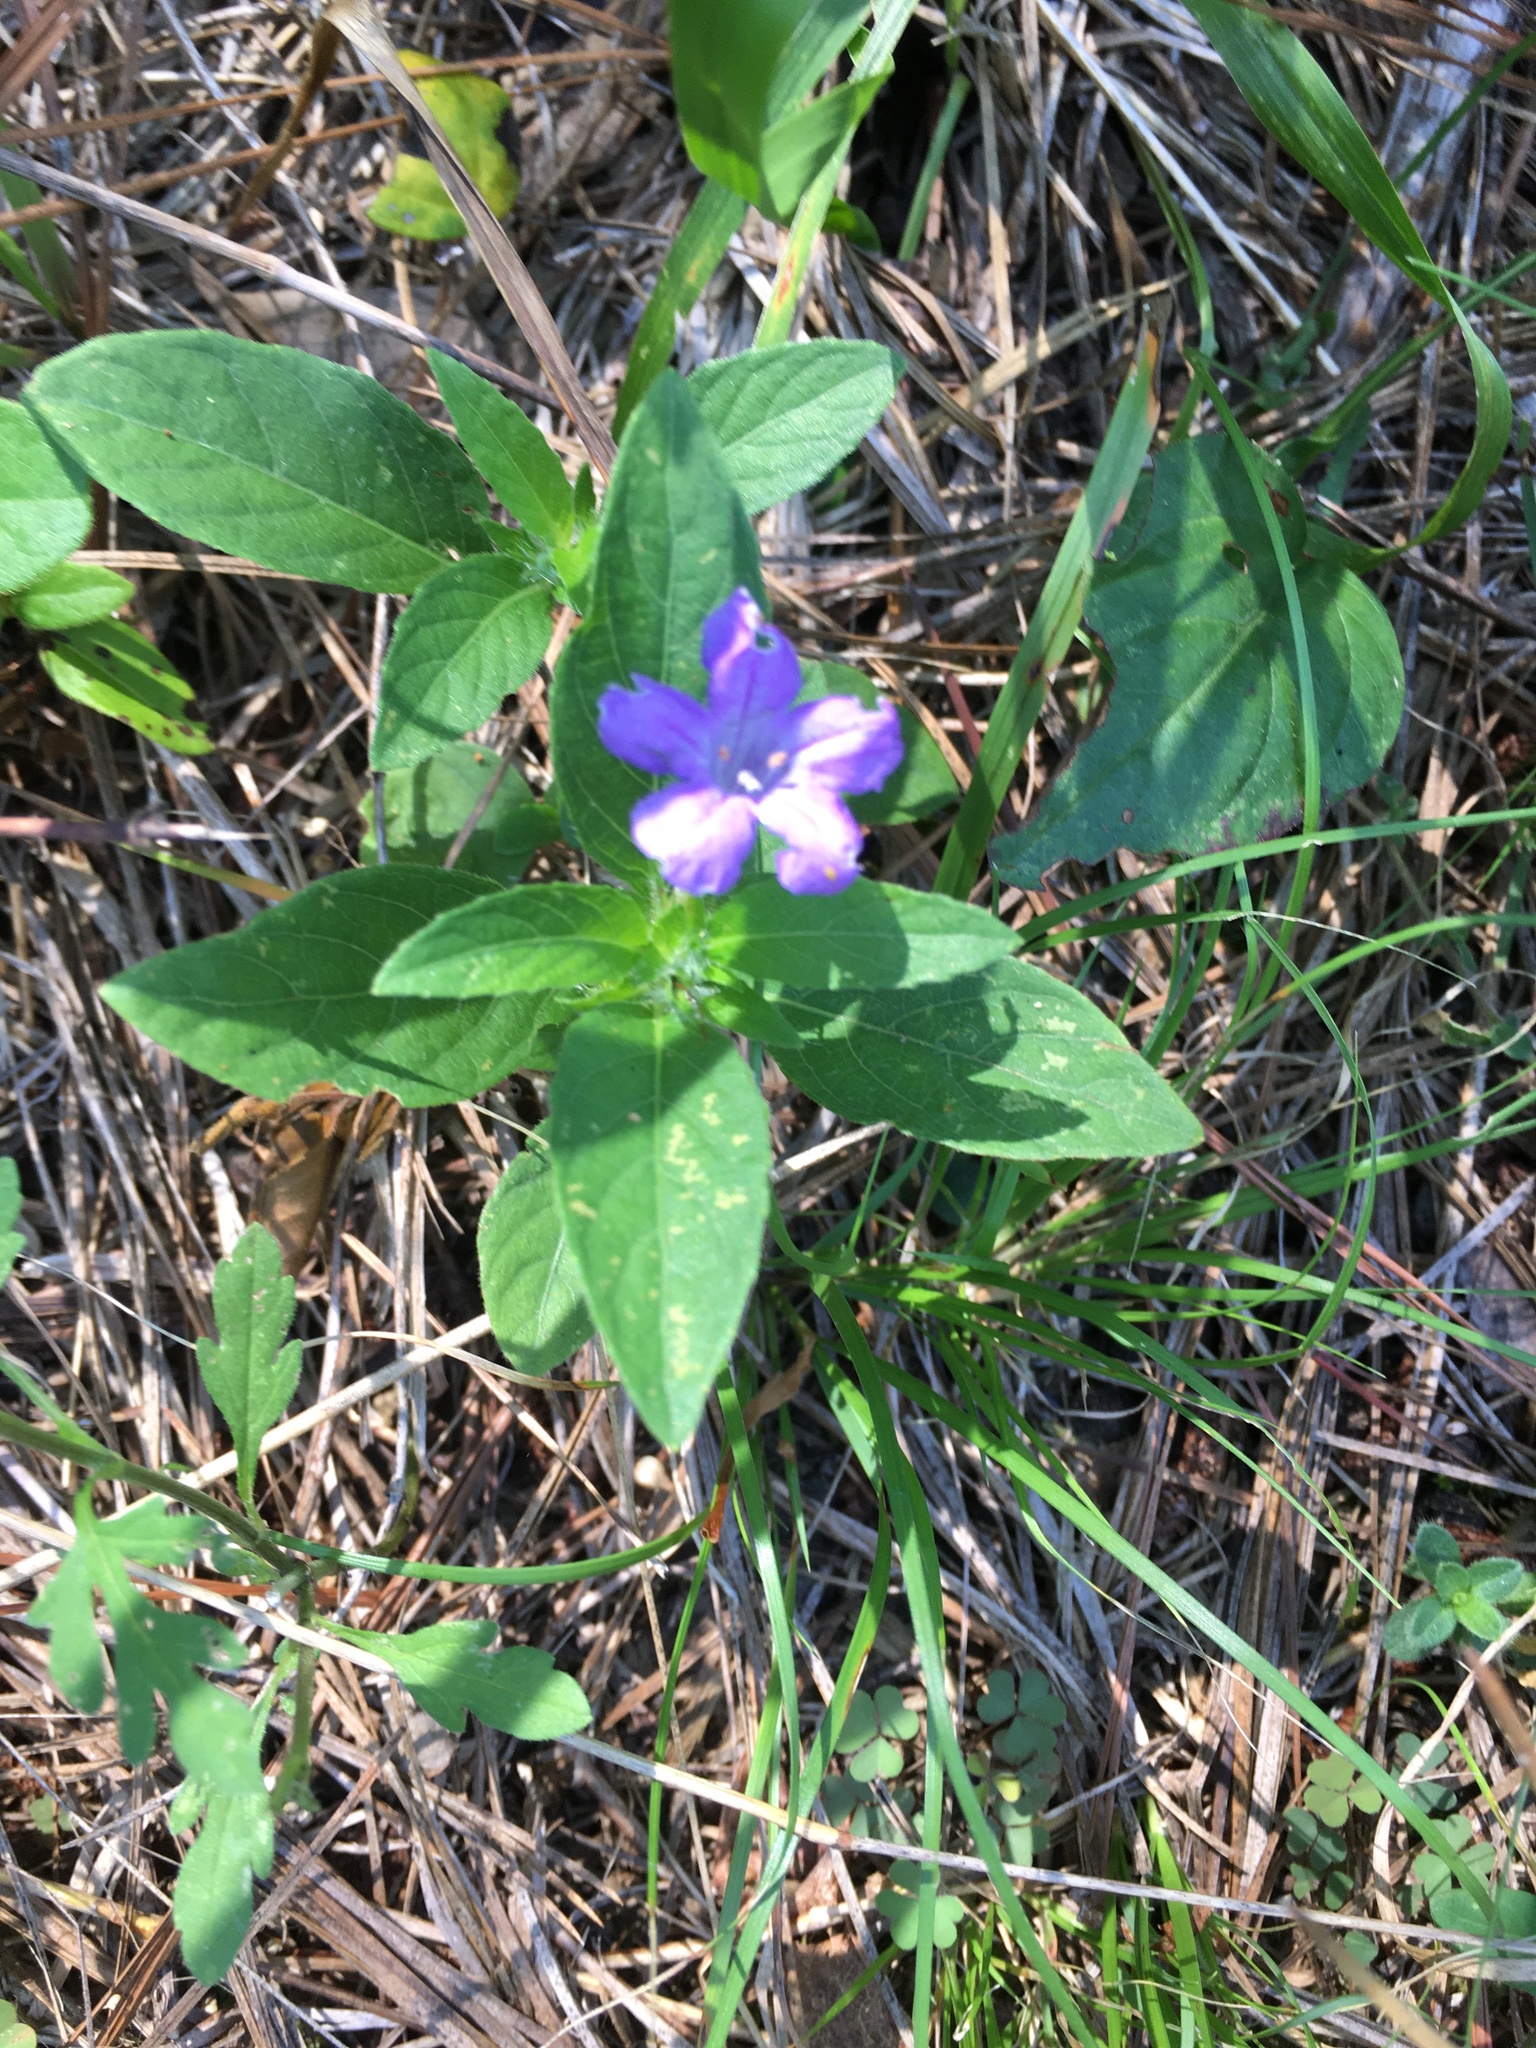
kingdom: Plantae
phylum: Tracheophyta
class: Magnoliopsida
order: Lamiales
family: Acanthaceae
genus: Ruellia
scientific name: Ruellia caroliniensis
